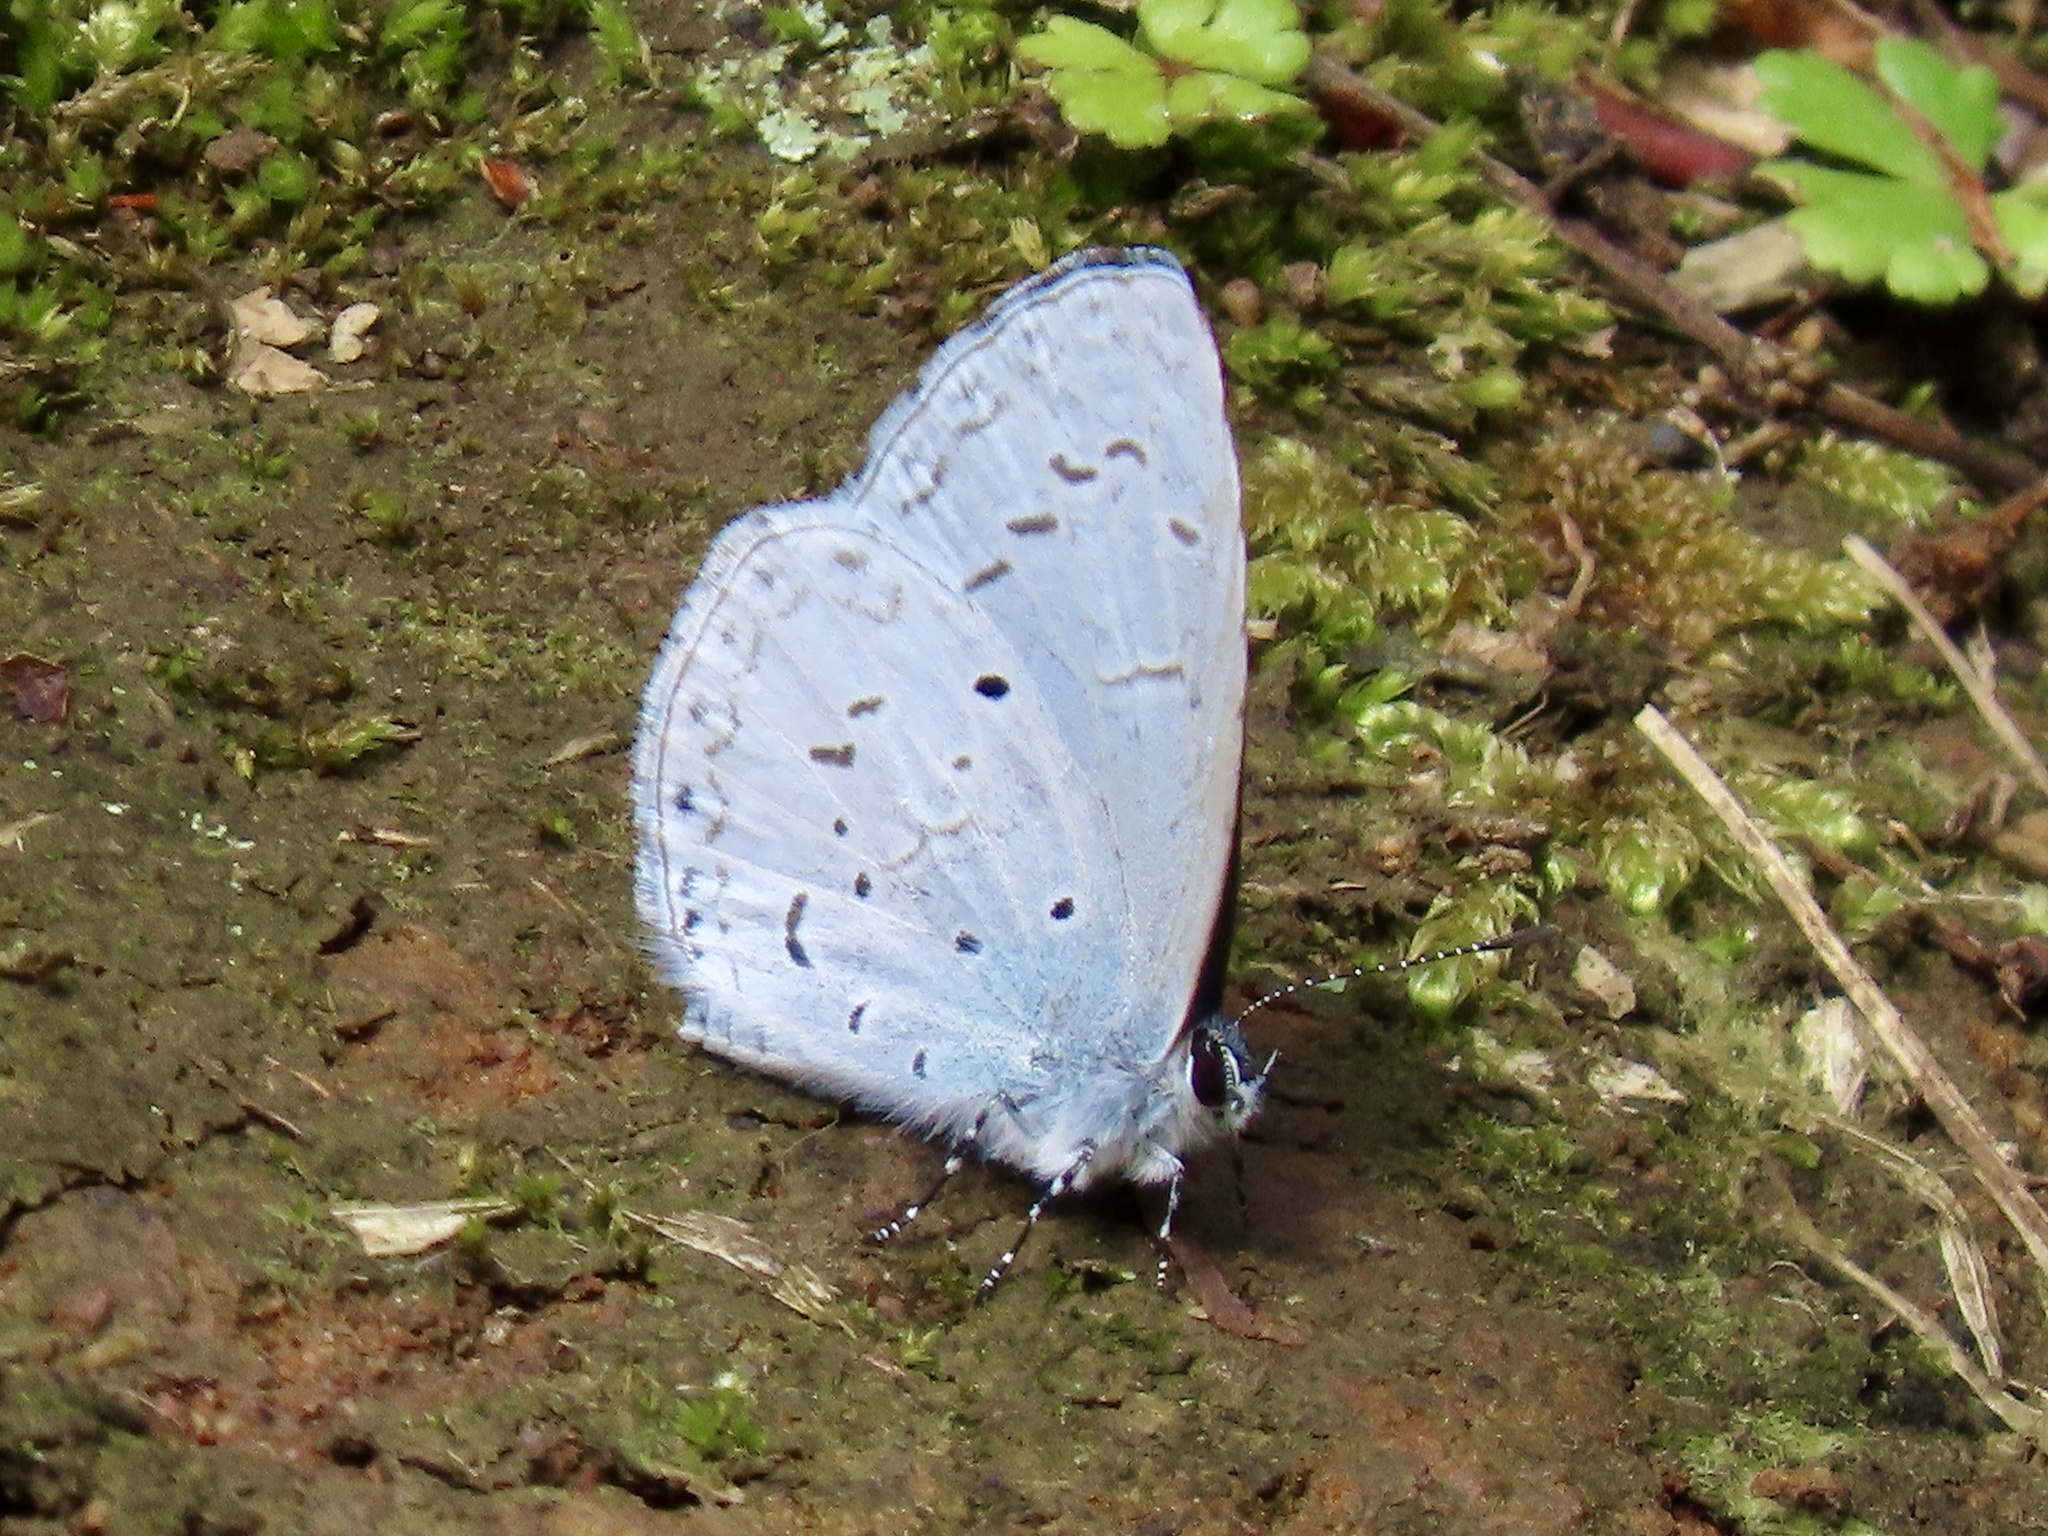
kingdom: Animalia
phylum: Arthropoda
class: Insecta
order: Lepidoptera
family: Lycaenidae
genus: Celastrina
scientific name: Celastrina lavendularis
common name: Plain hedge blue
